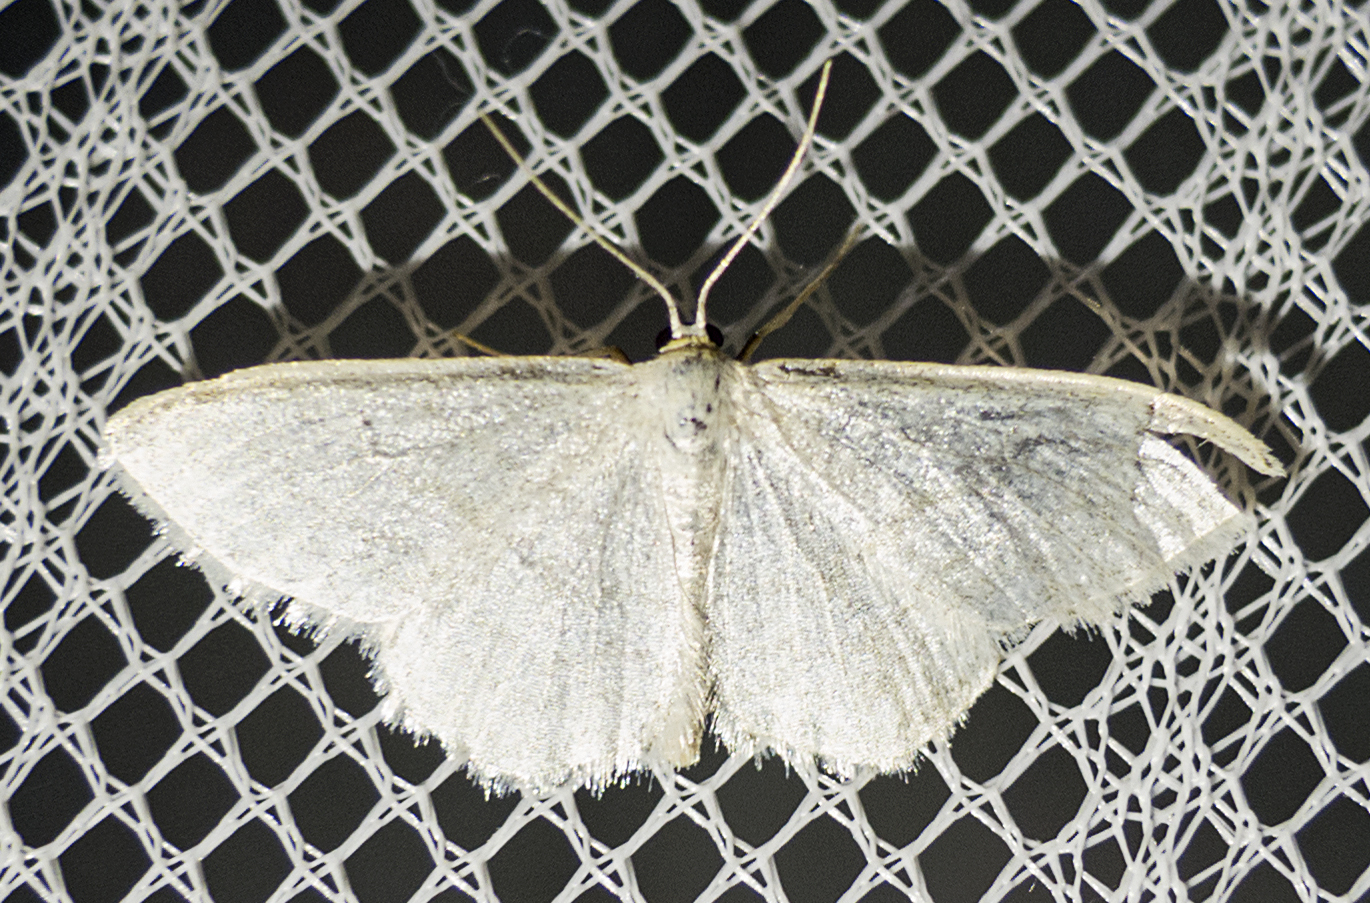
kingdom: Animalia
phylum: Arthropoda
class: Insecta
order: Lepidoptera
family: Geometridae
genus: Scopula
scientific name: Scopula floslactata
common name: Cream wave
